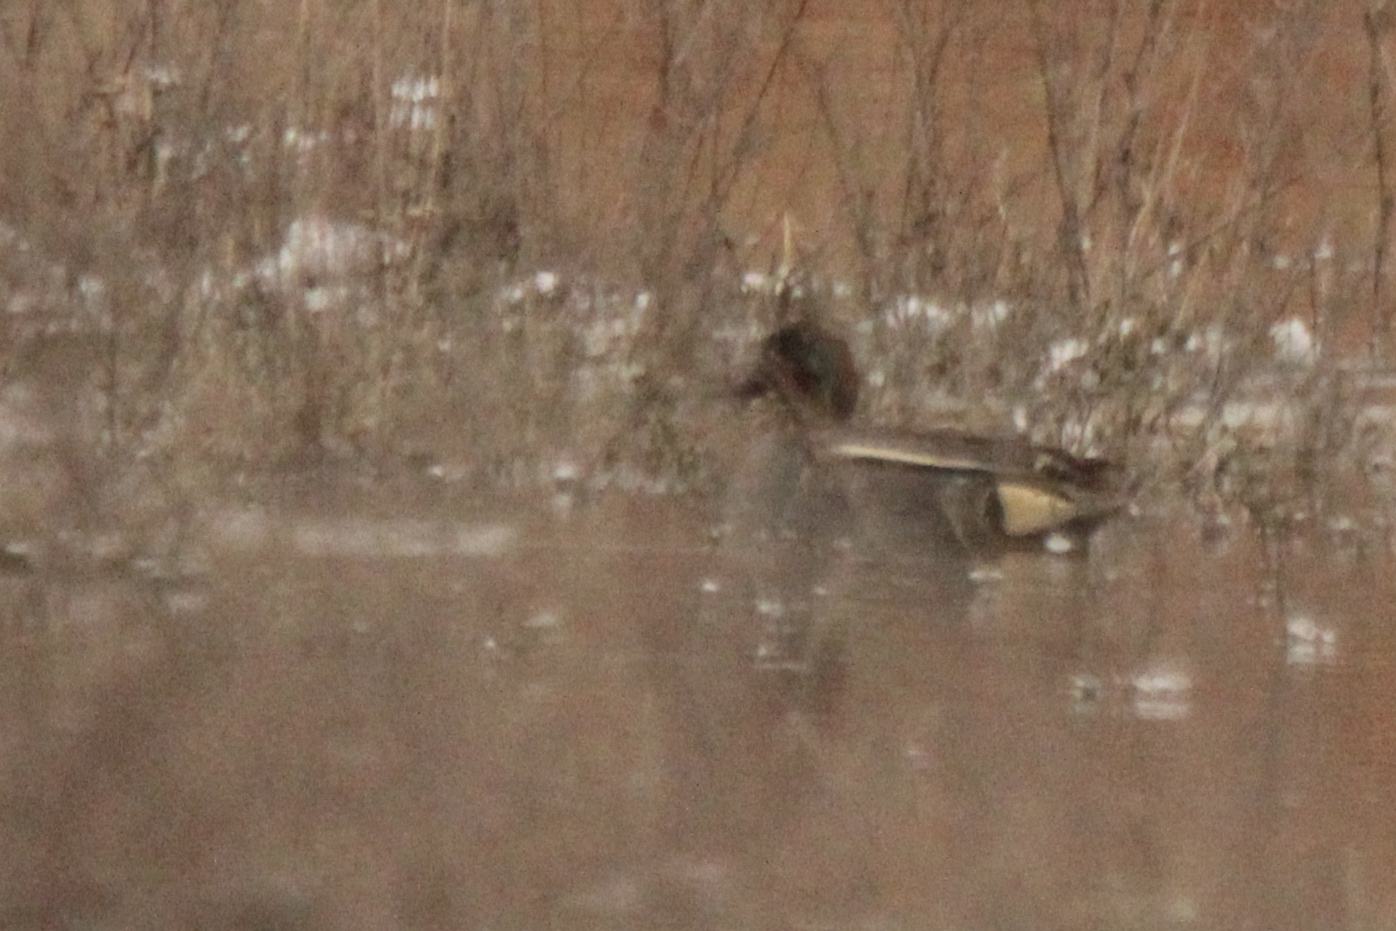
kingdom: Animalia
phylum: Chordata
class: Aves
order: Anseriformes
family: Anatidae
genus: Anas
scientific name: Anas crecca
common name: Eurasian teal
